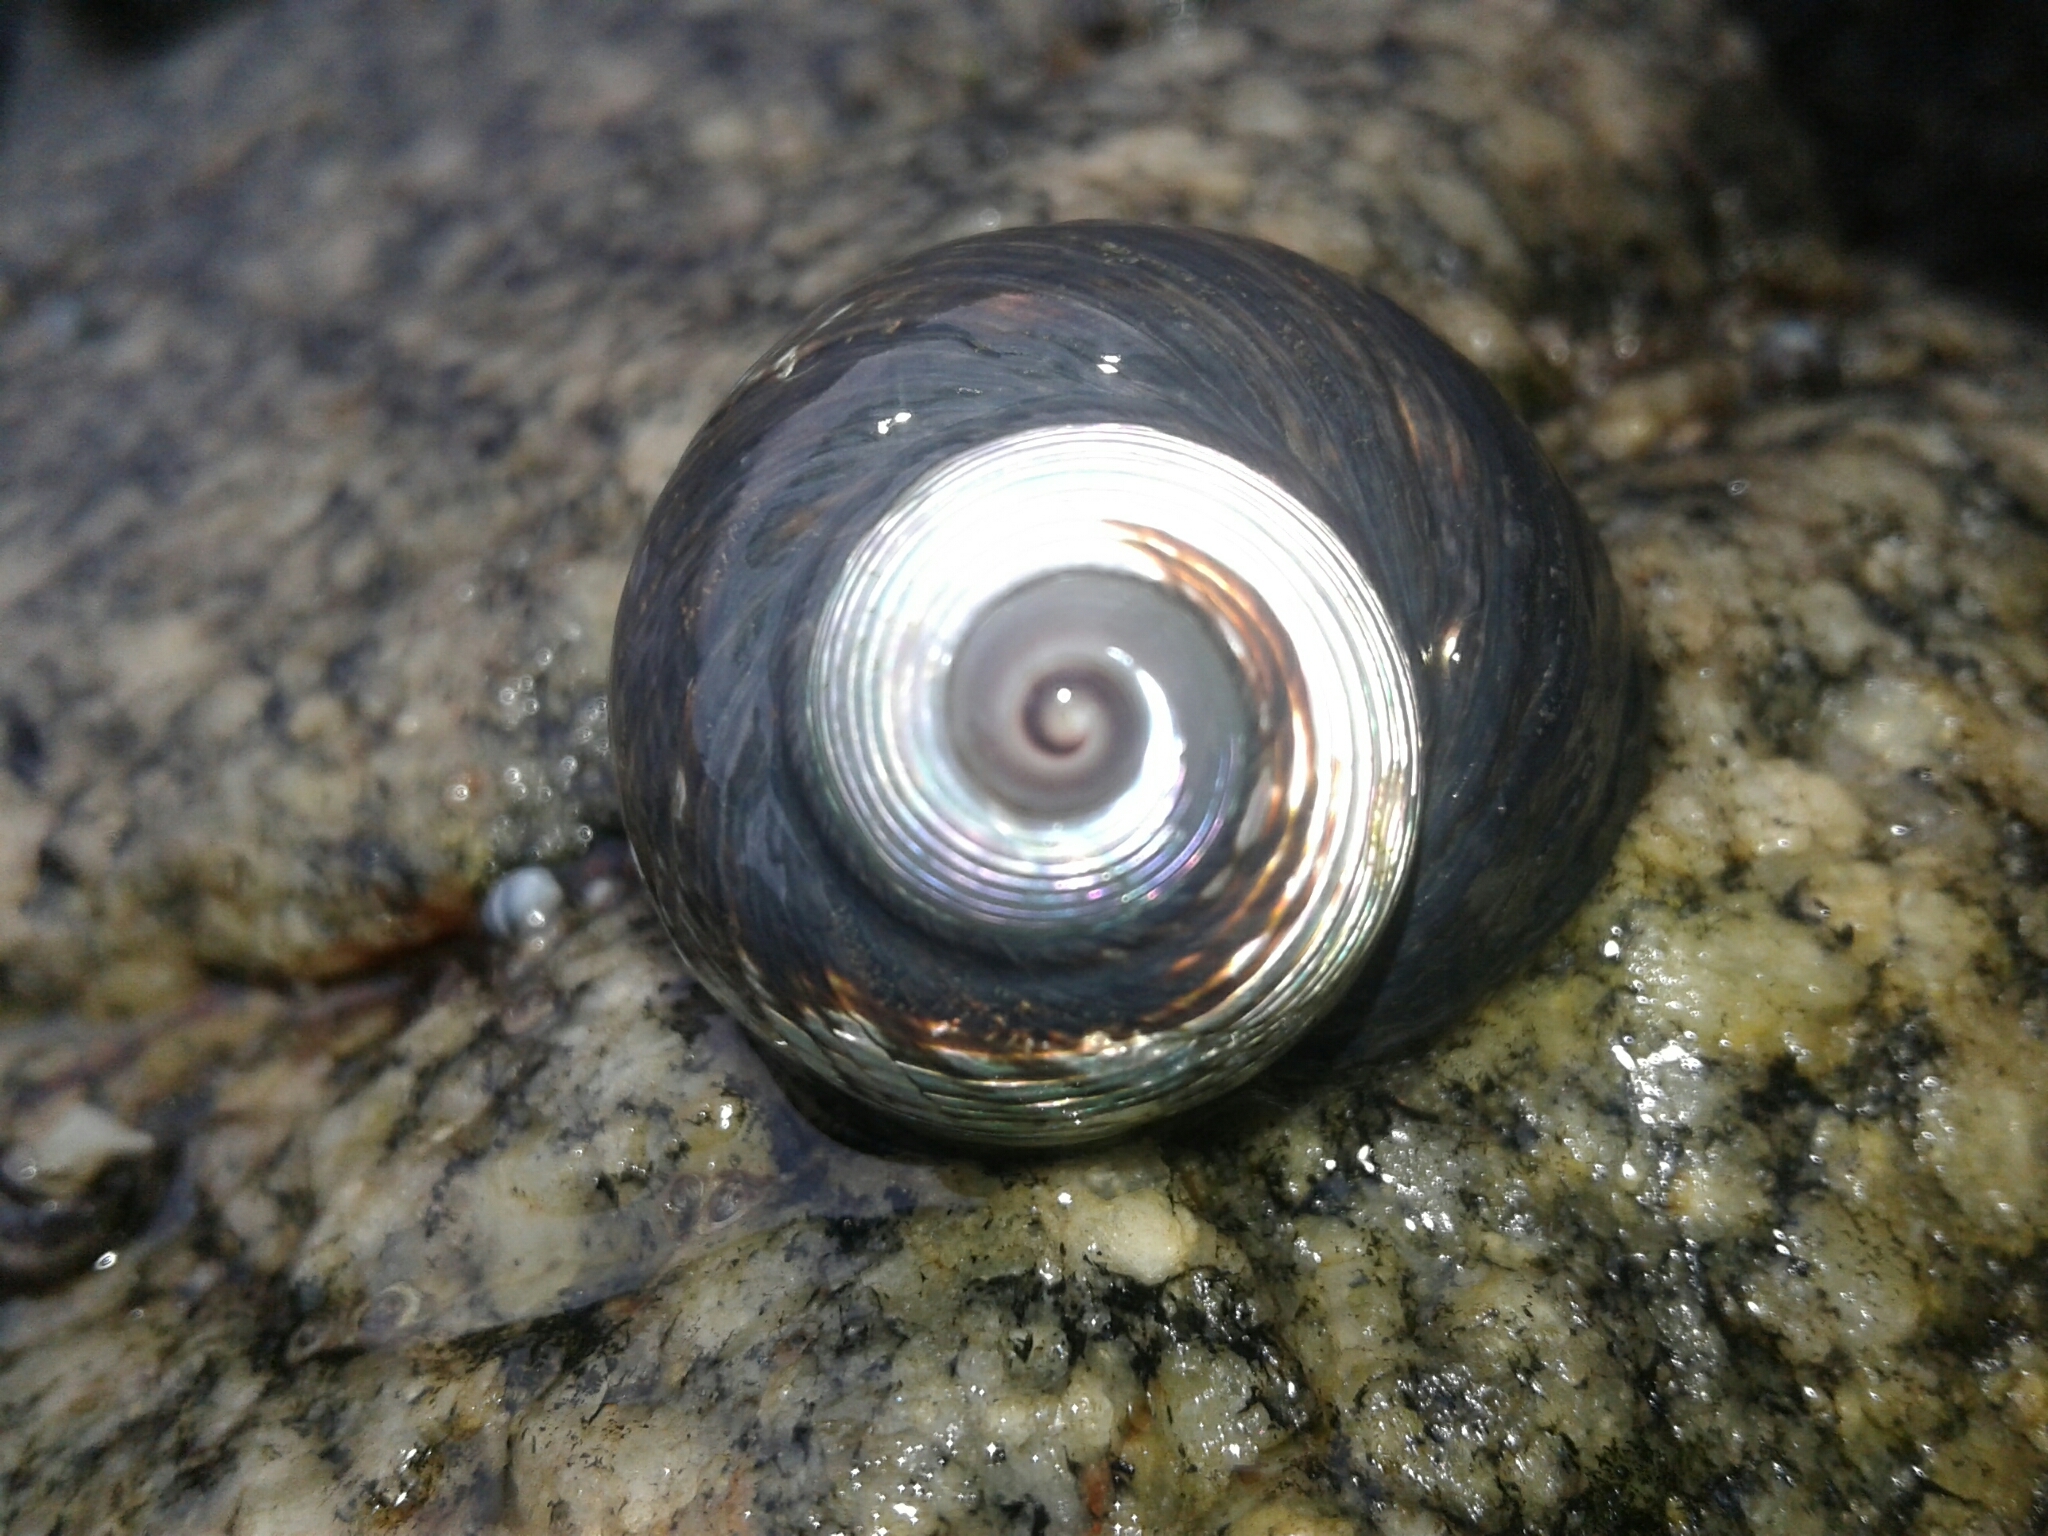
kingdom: Animalia
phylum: Mollusca
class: Gastropoda
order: Trochida
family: Trochidae
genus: Diloma
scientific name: Diloma nigerrimum
